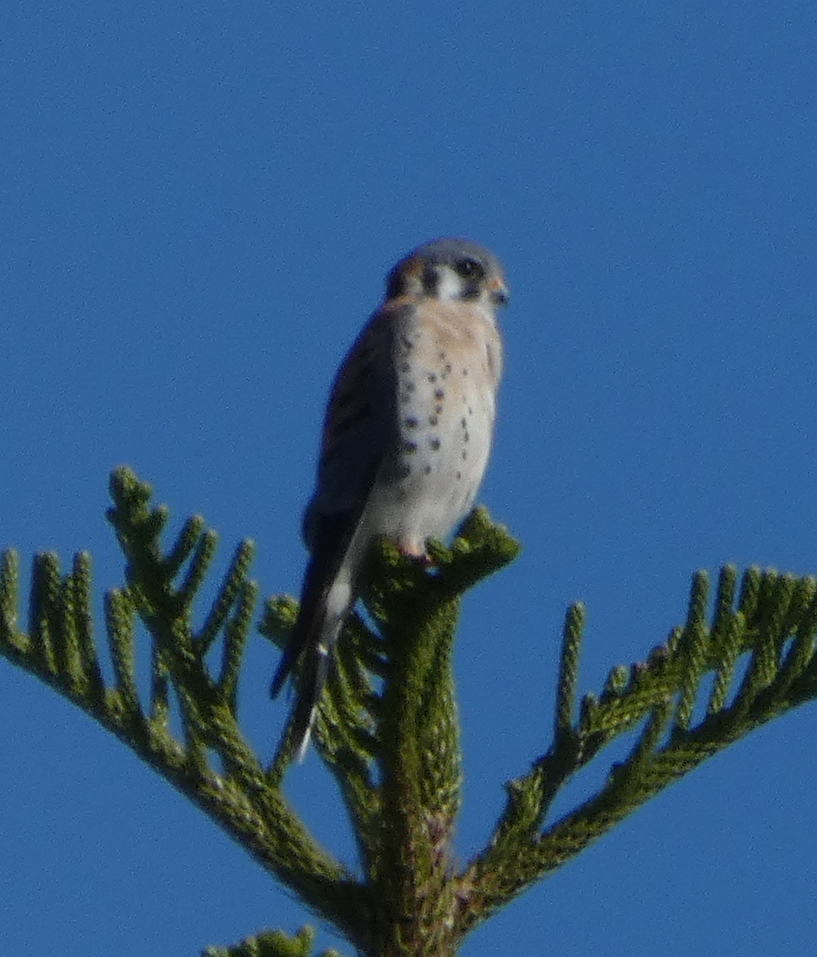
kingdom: Animalia
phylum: Chordata
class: Aves
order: Falconiformes
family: Falconidae
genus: Falco
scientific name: Falco sparverius
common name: American kestrel
